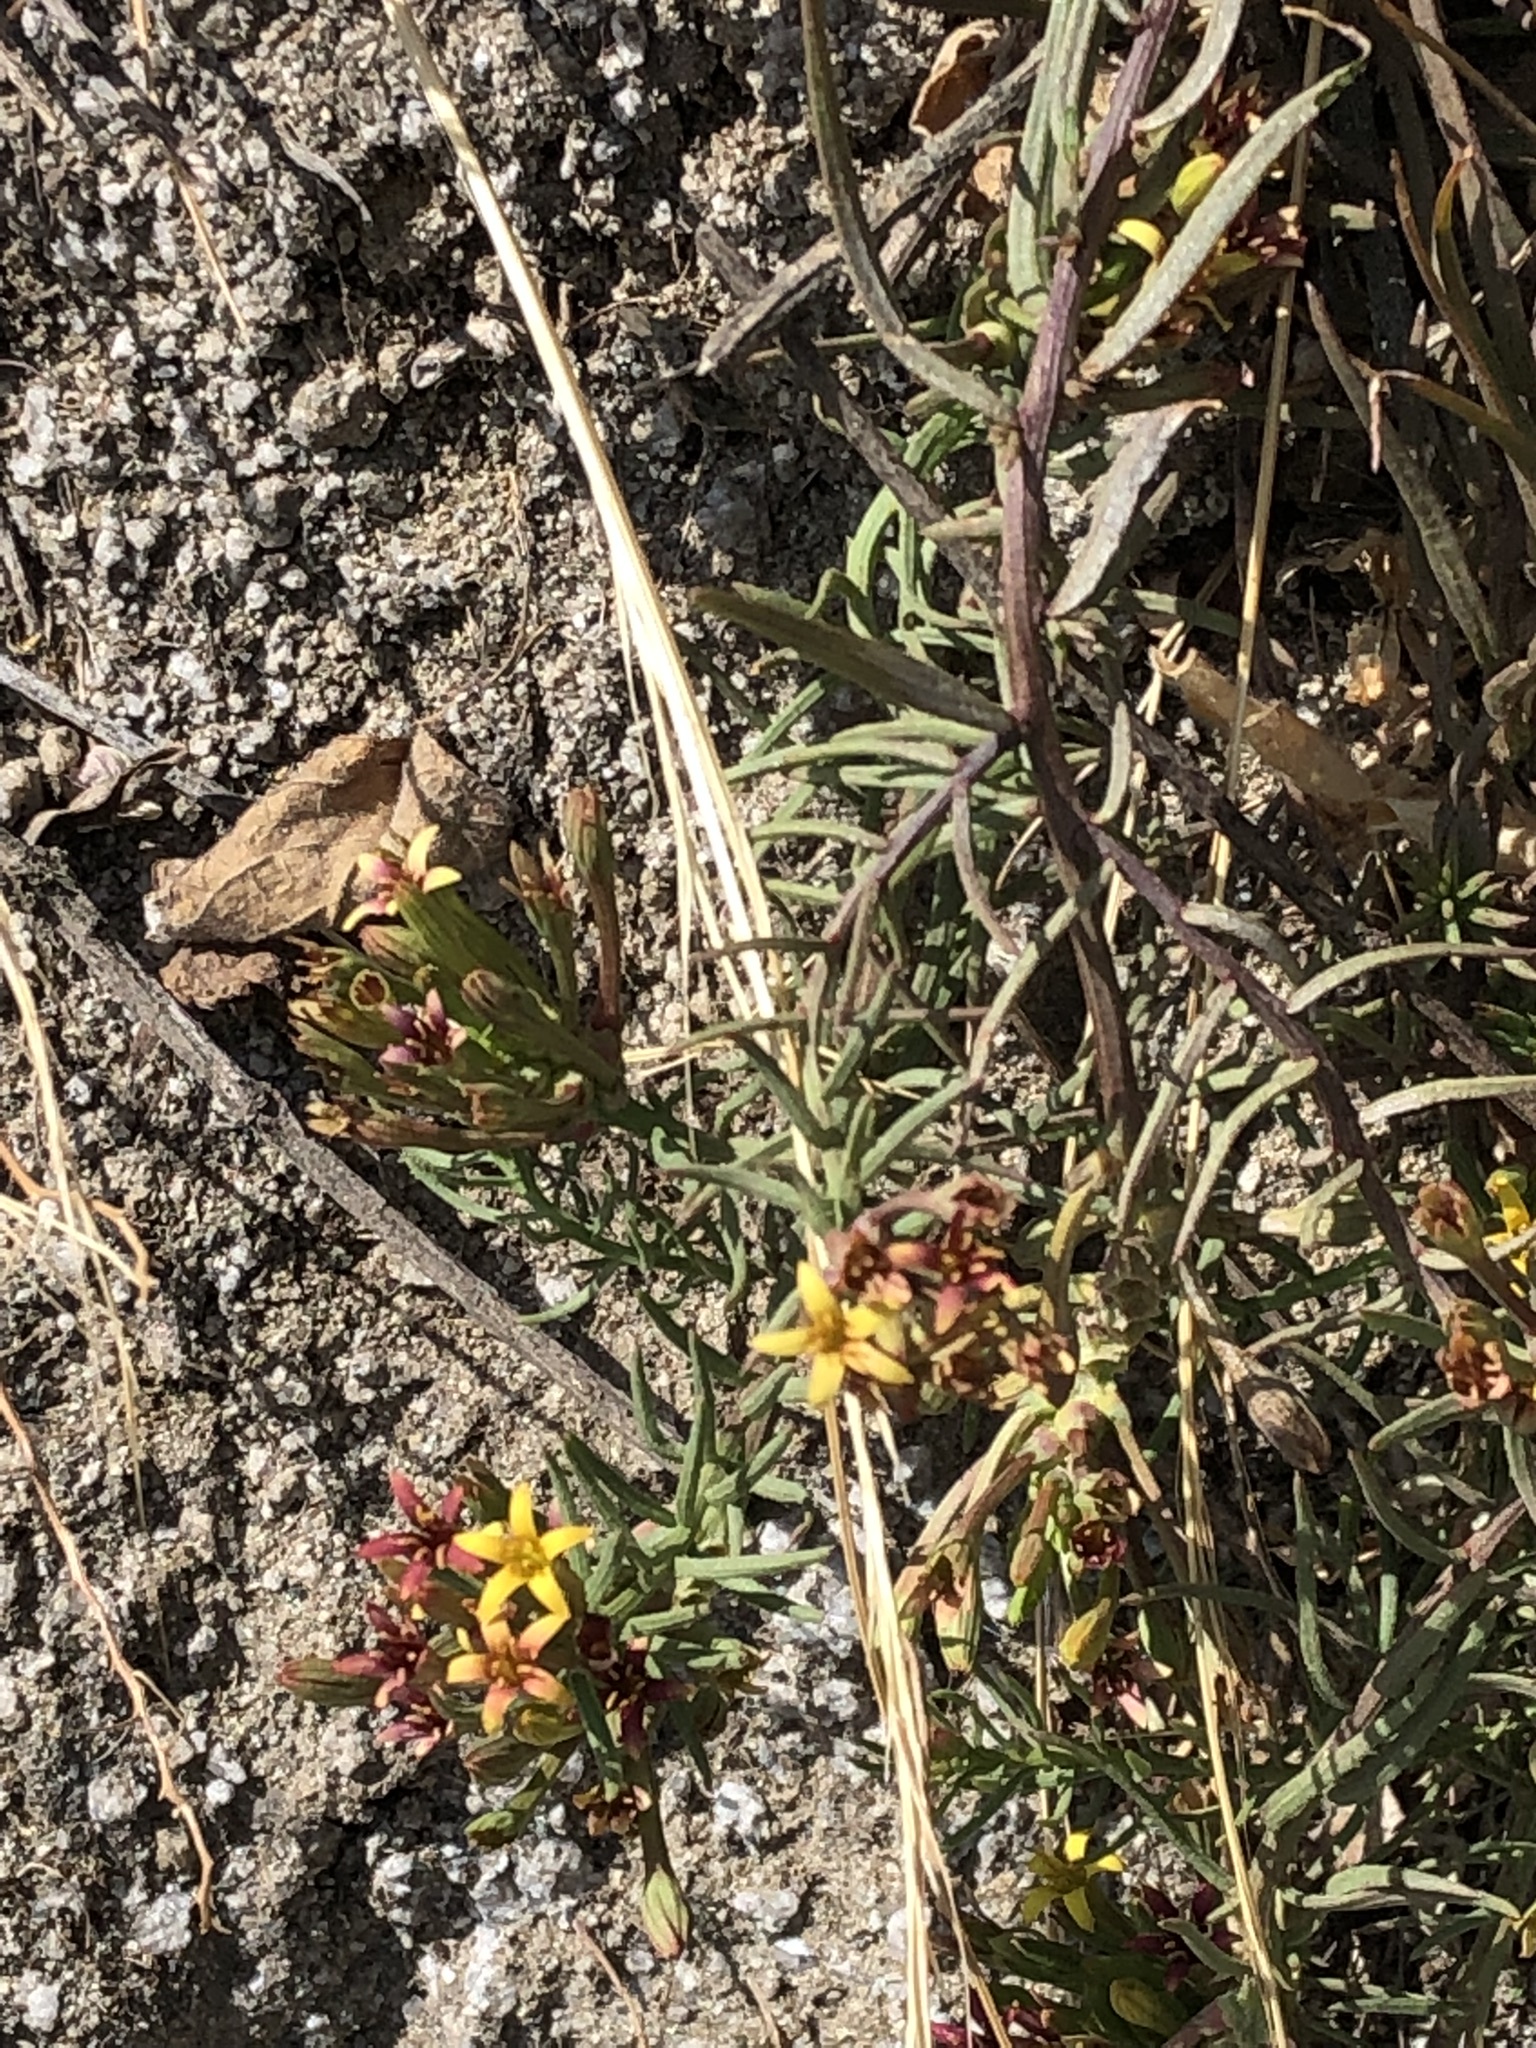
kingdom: Plantae
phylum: Tracheophyta
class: Magnoliopsida
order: Santalales
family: Schoepfiaceae
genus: Quinchamalium
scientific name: Quinchamalium chilense
